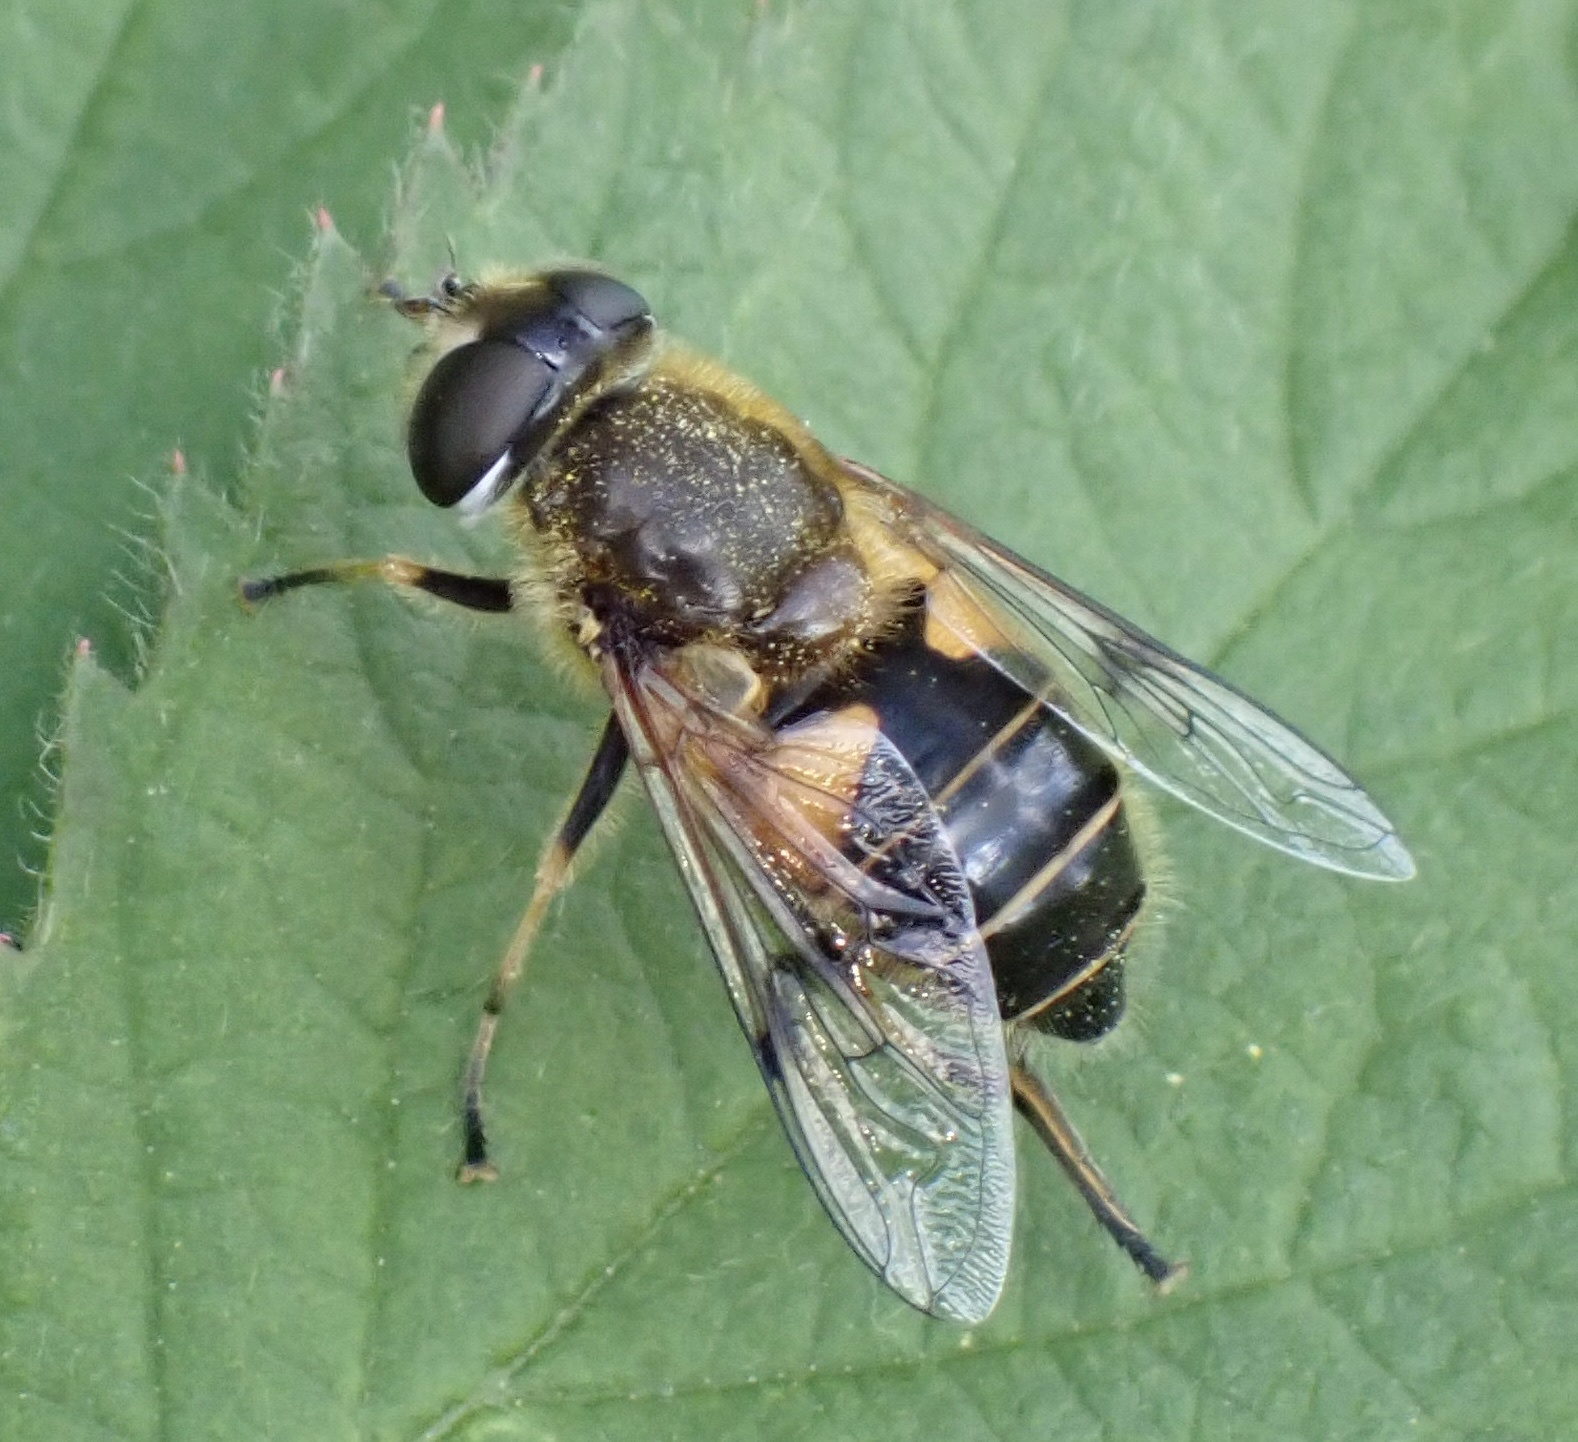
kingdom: Animalia
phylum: Arthropoda
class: Insecta
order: Diptera
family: Syrphidae
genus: Cheilosia
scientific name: Cheilosia morio
